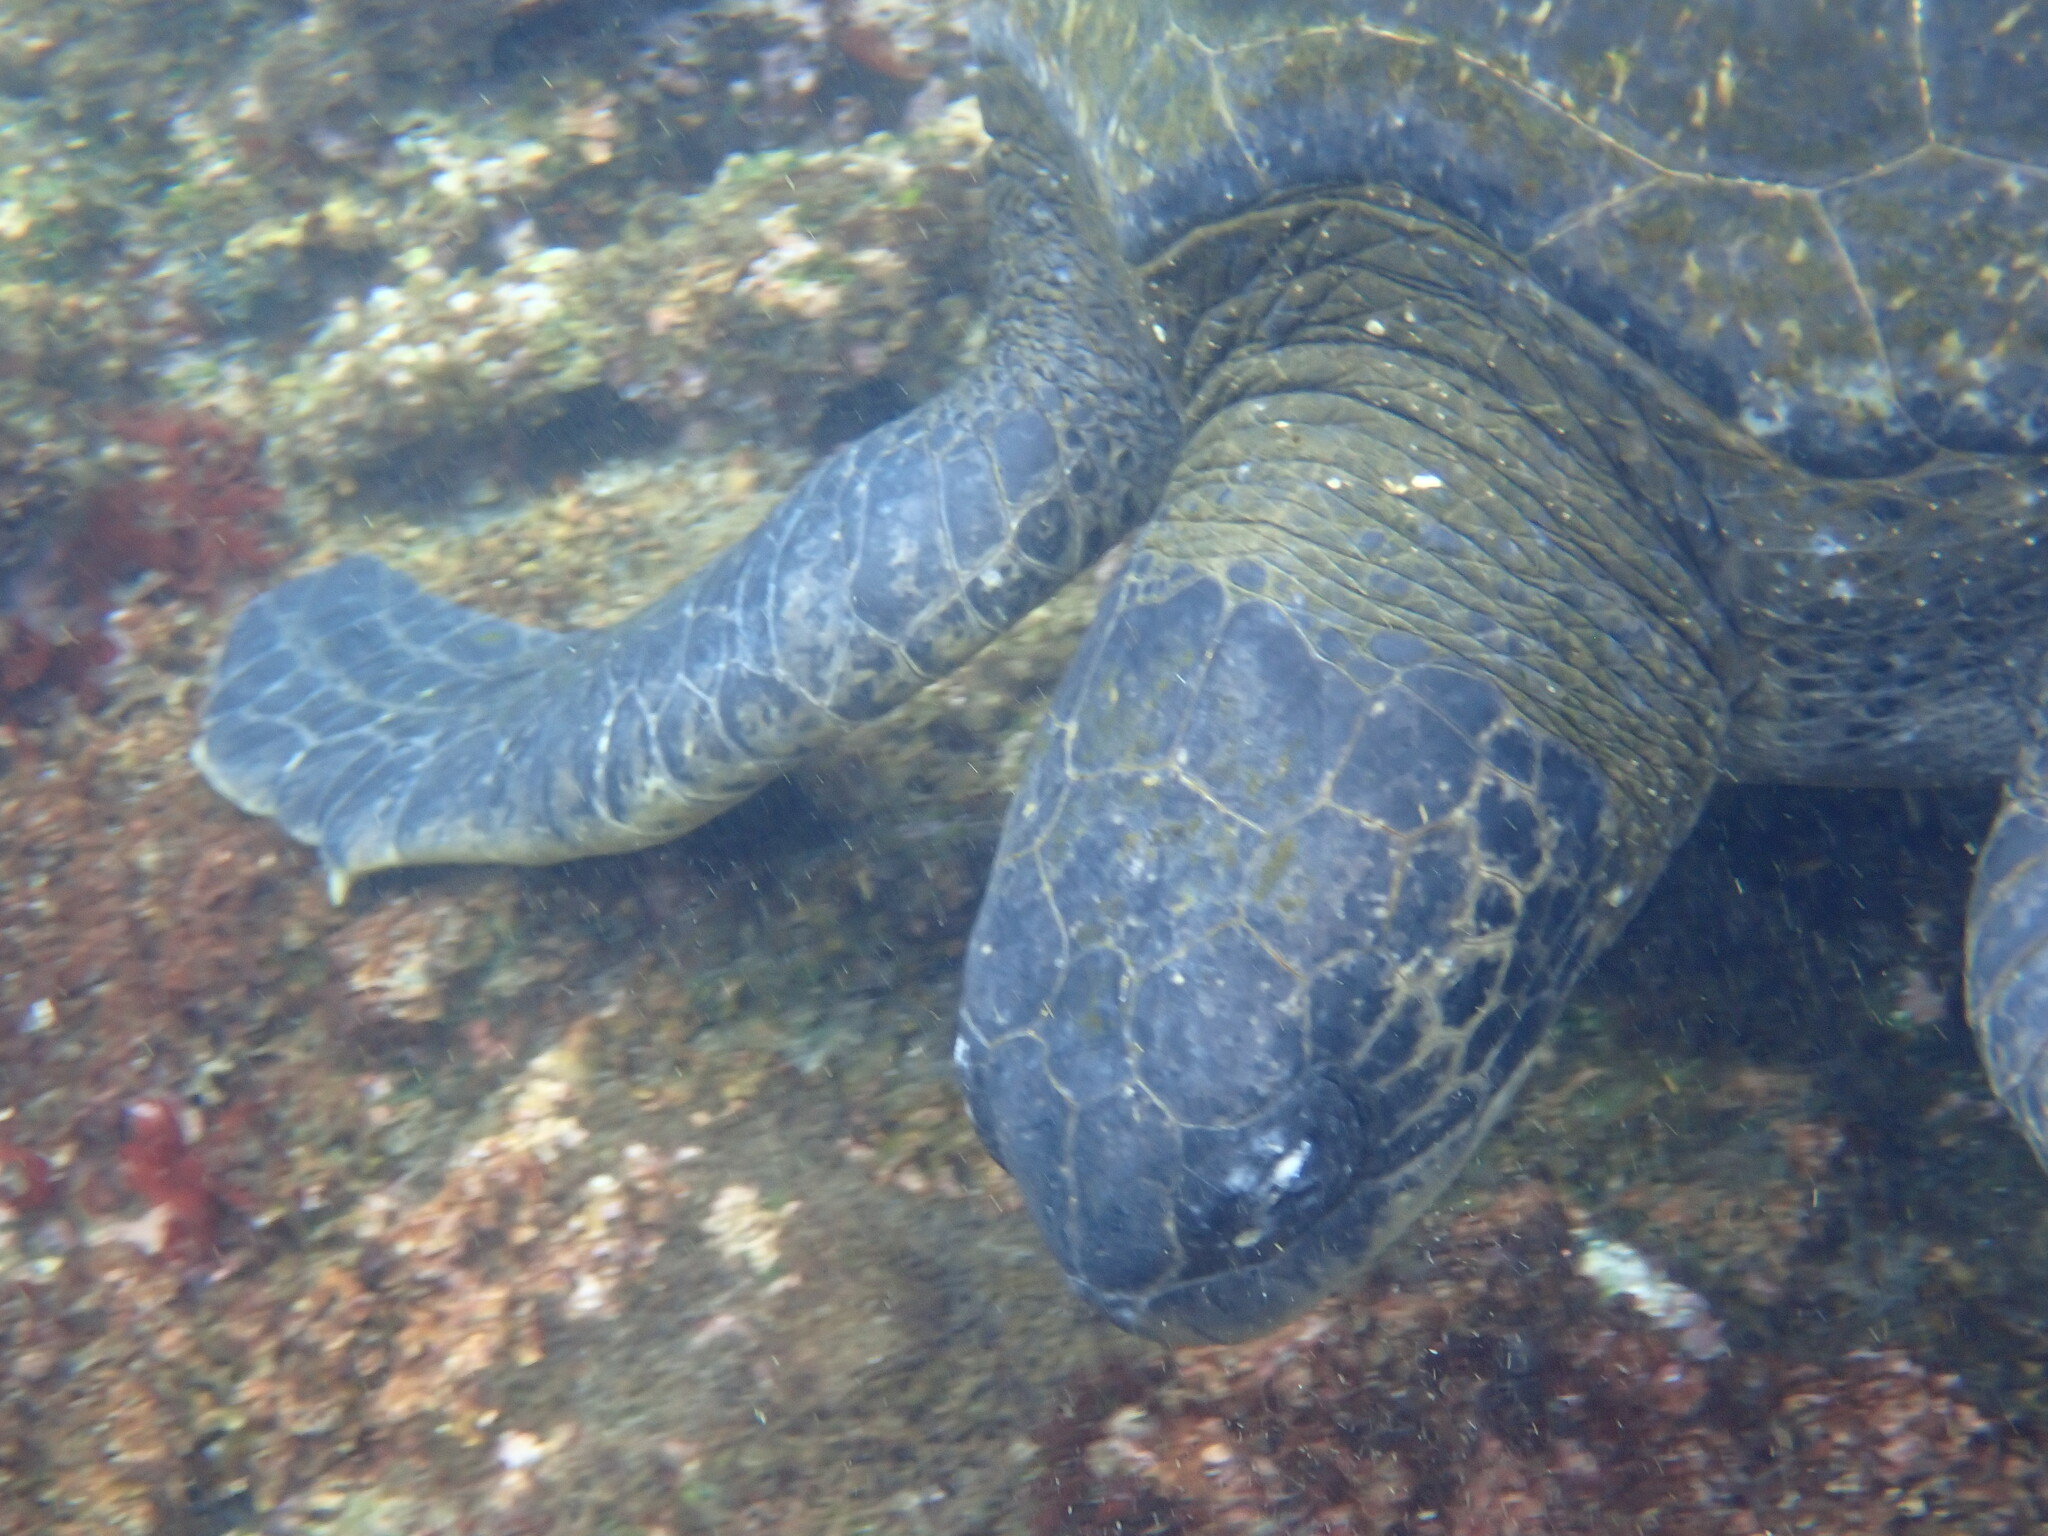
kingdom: Animalia
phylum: Chordata
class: Testudines
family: Cheloniidae
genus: Chelonia
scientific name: Chelonia mydas
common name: Green turtle
